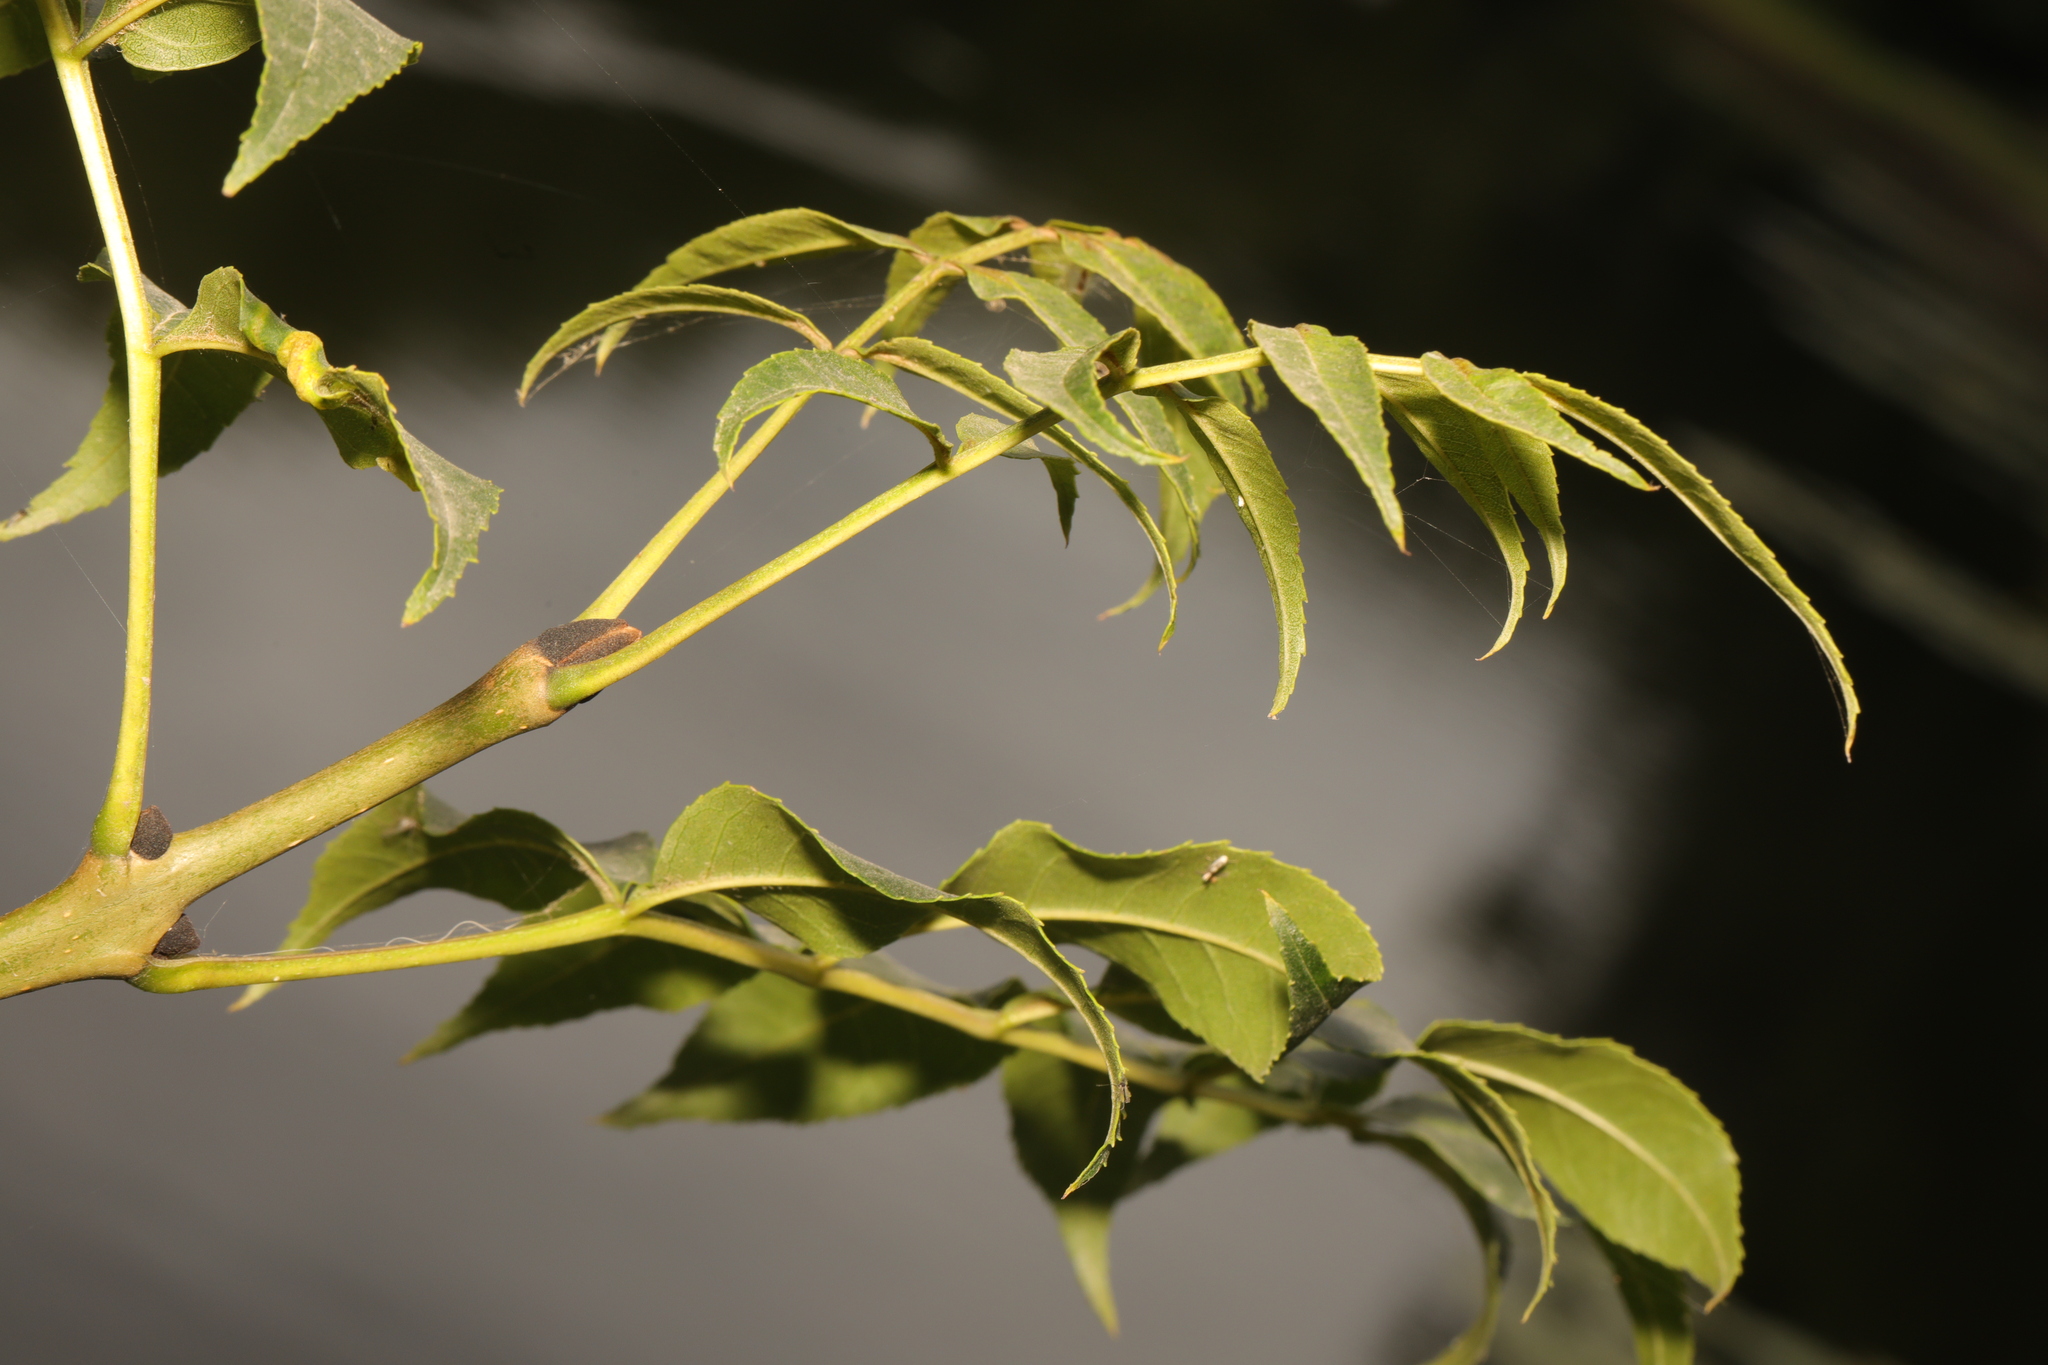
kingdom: Plantae
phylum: Tracheophyta
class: Magnoliopsida
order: Lamiales
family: Oleaceae
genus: Fraxinus
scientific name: Fraxinus excelsior
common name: European ash
